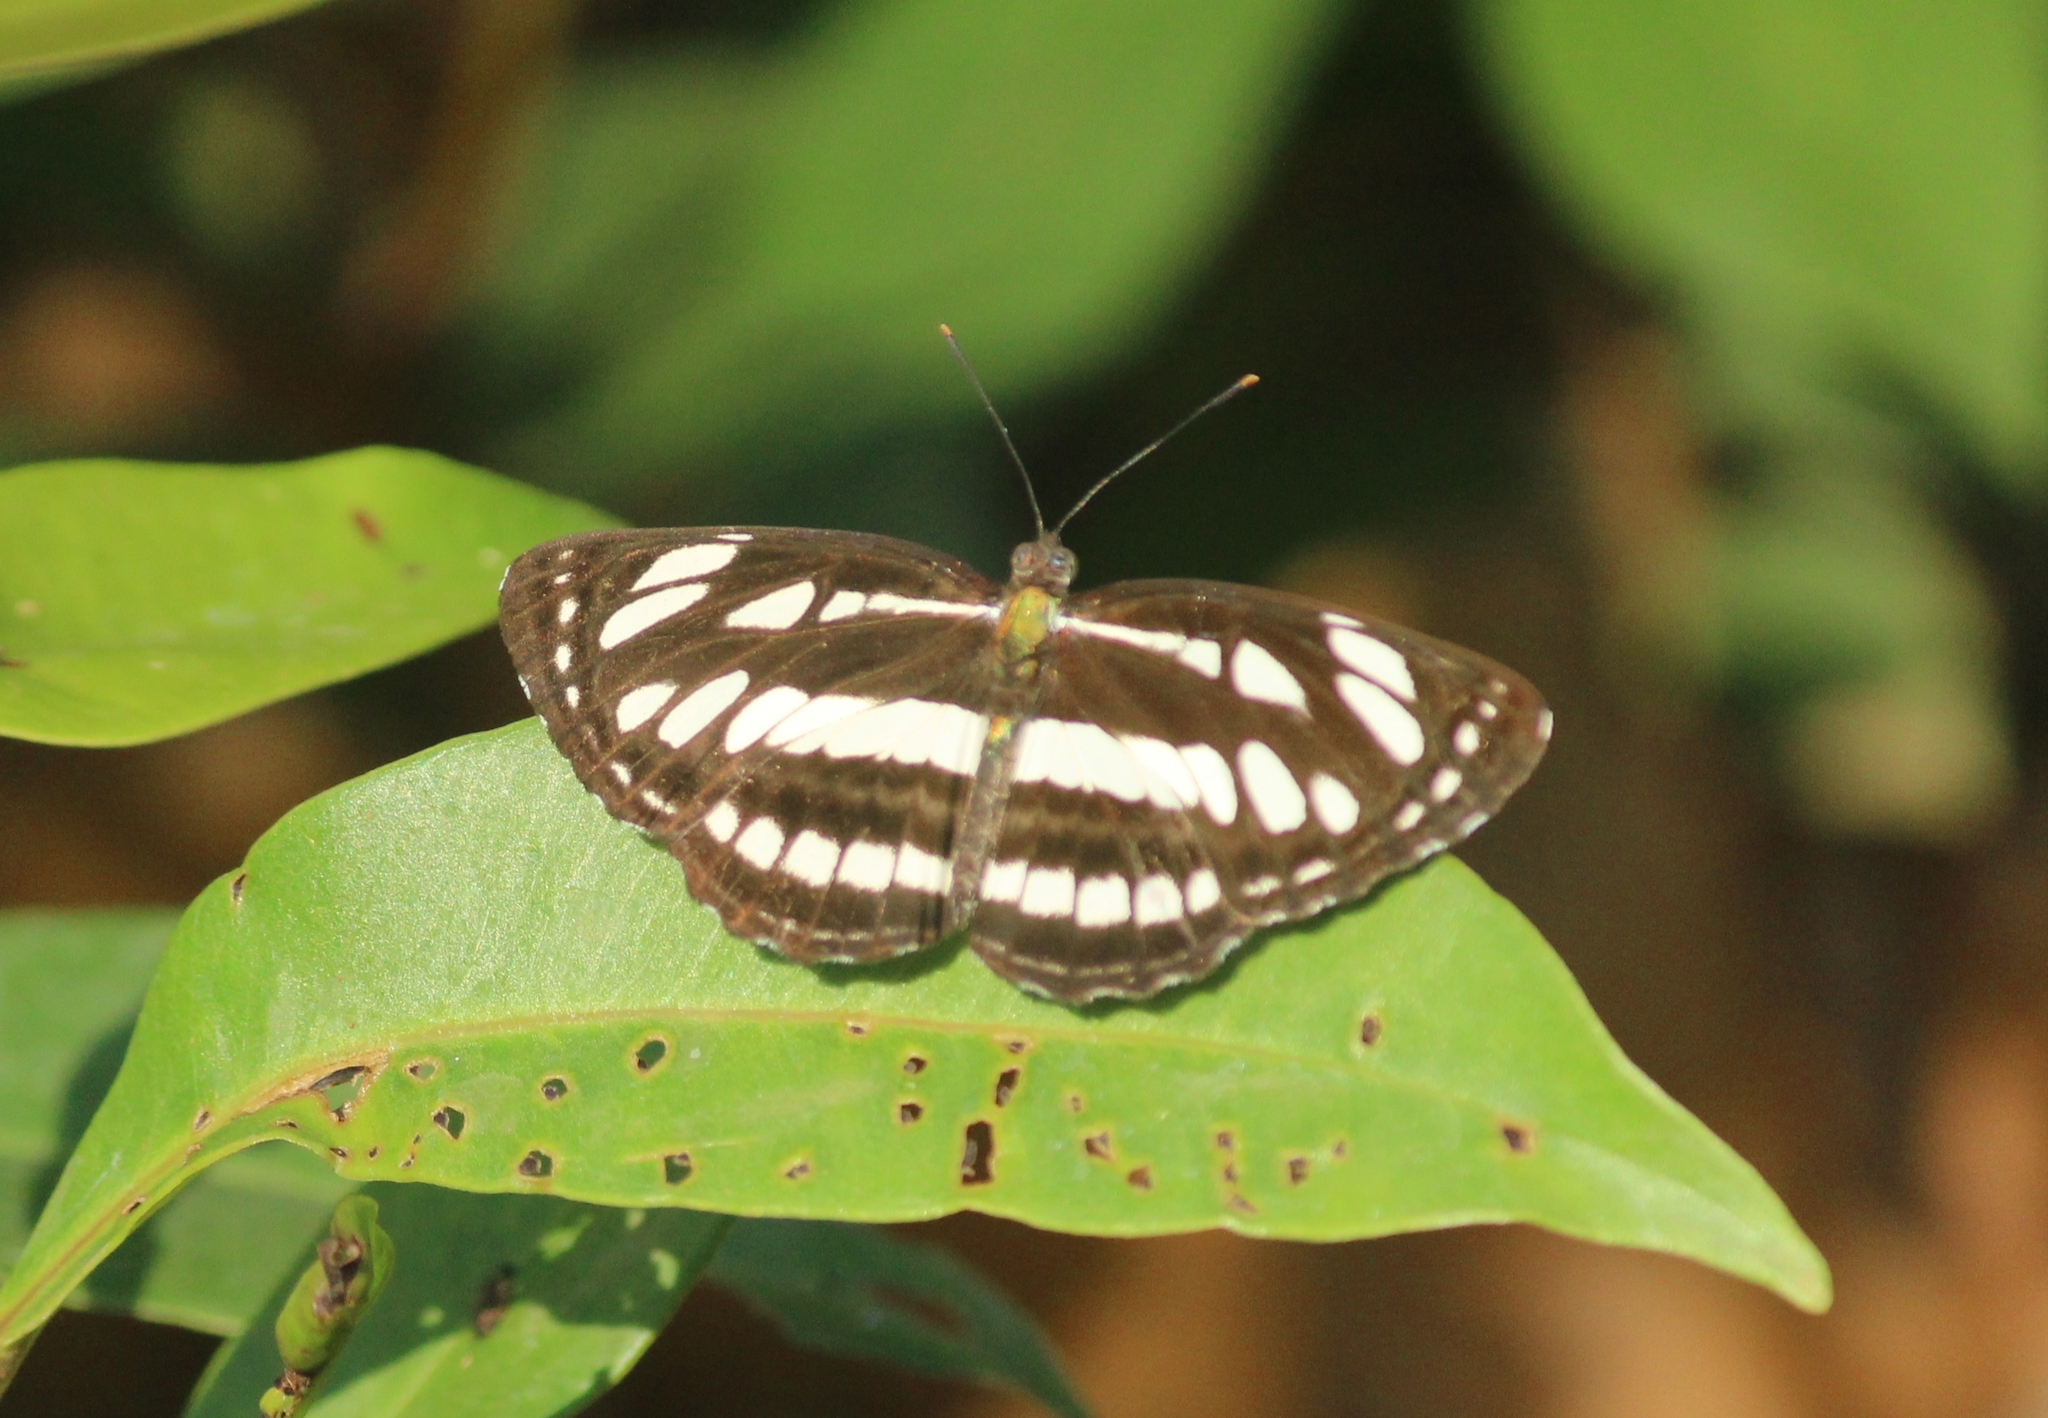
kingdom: Animalia
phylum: Arthropoda
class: Insecta
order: Lepidoptera
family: Nymphalidae
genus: Neptis
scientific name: Neptis hylas
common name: Common sailer
